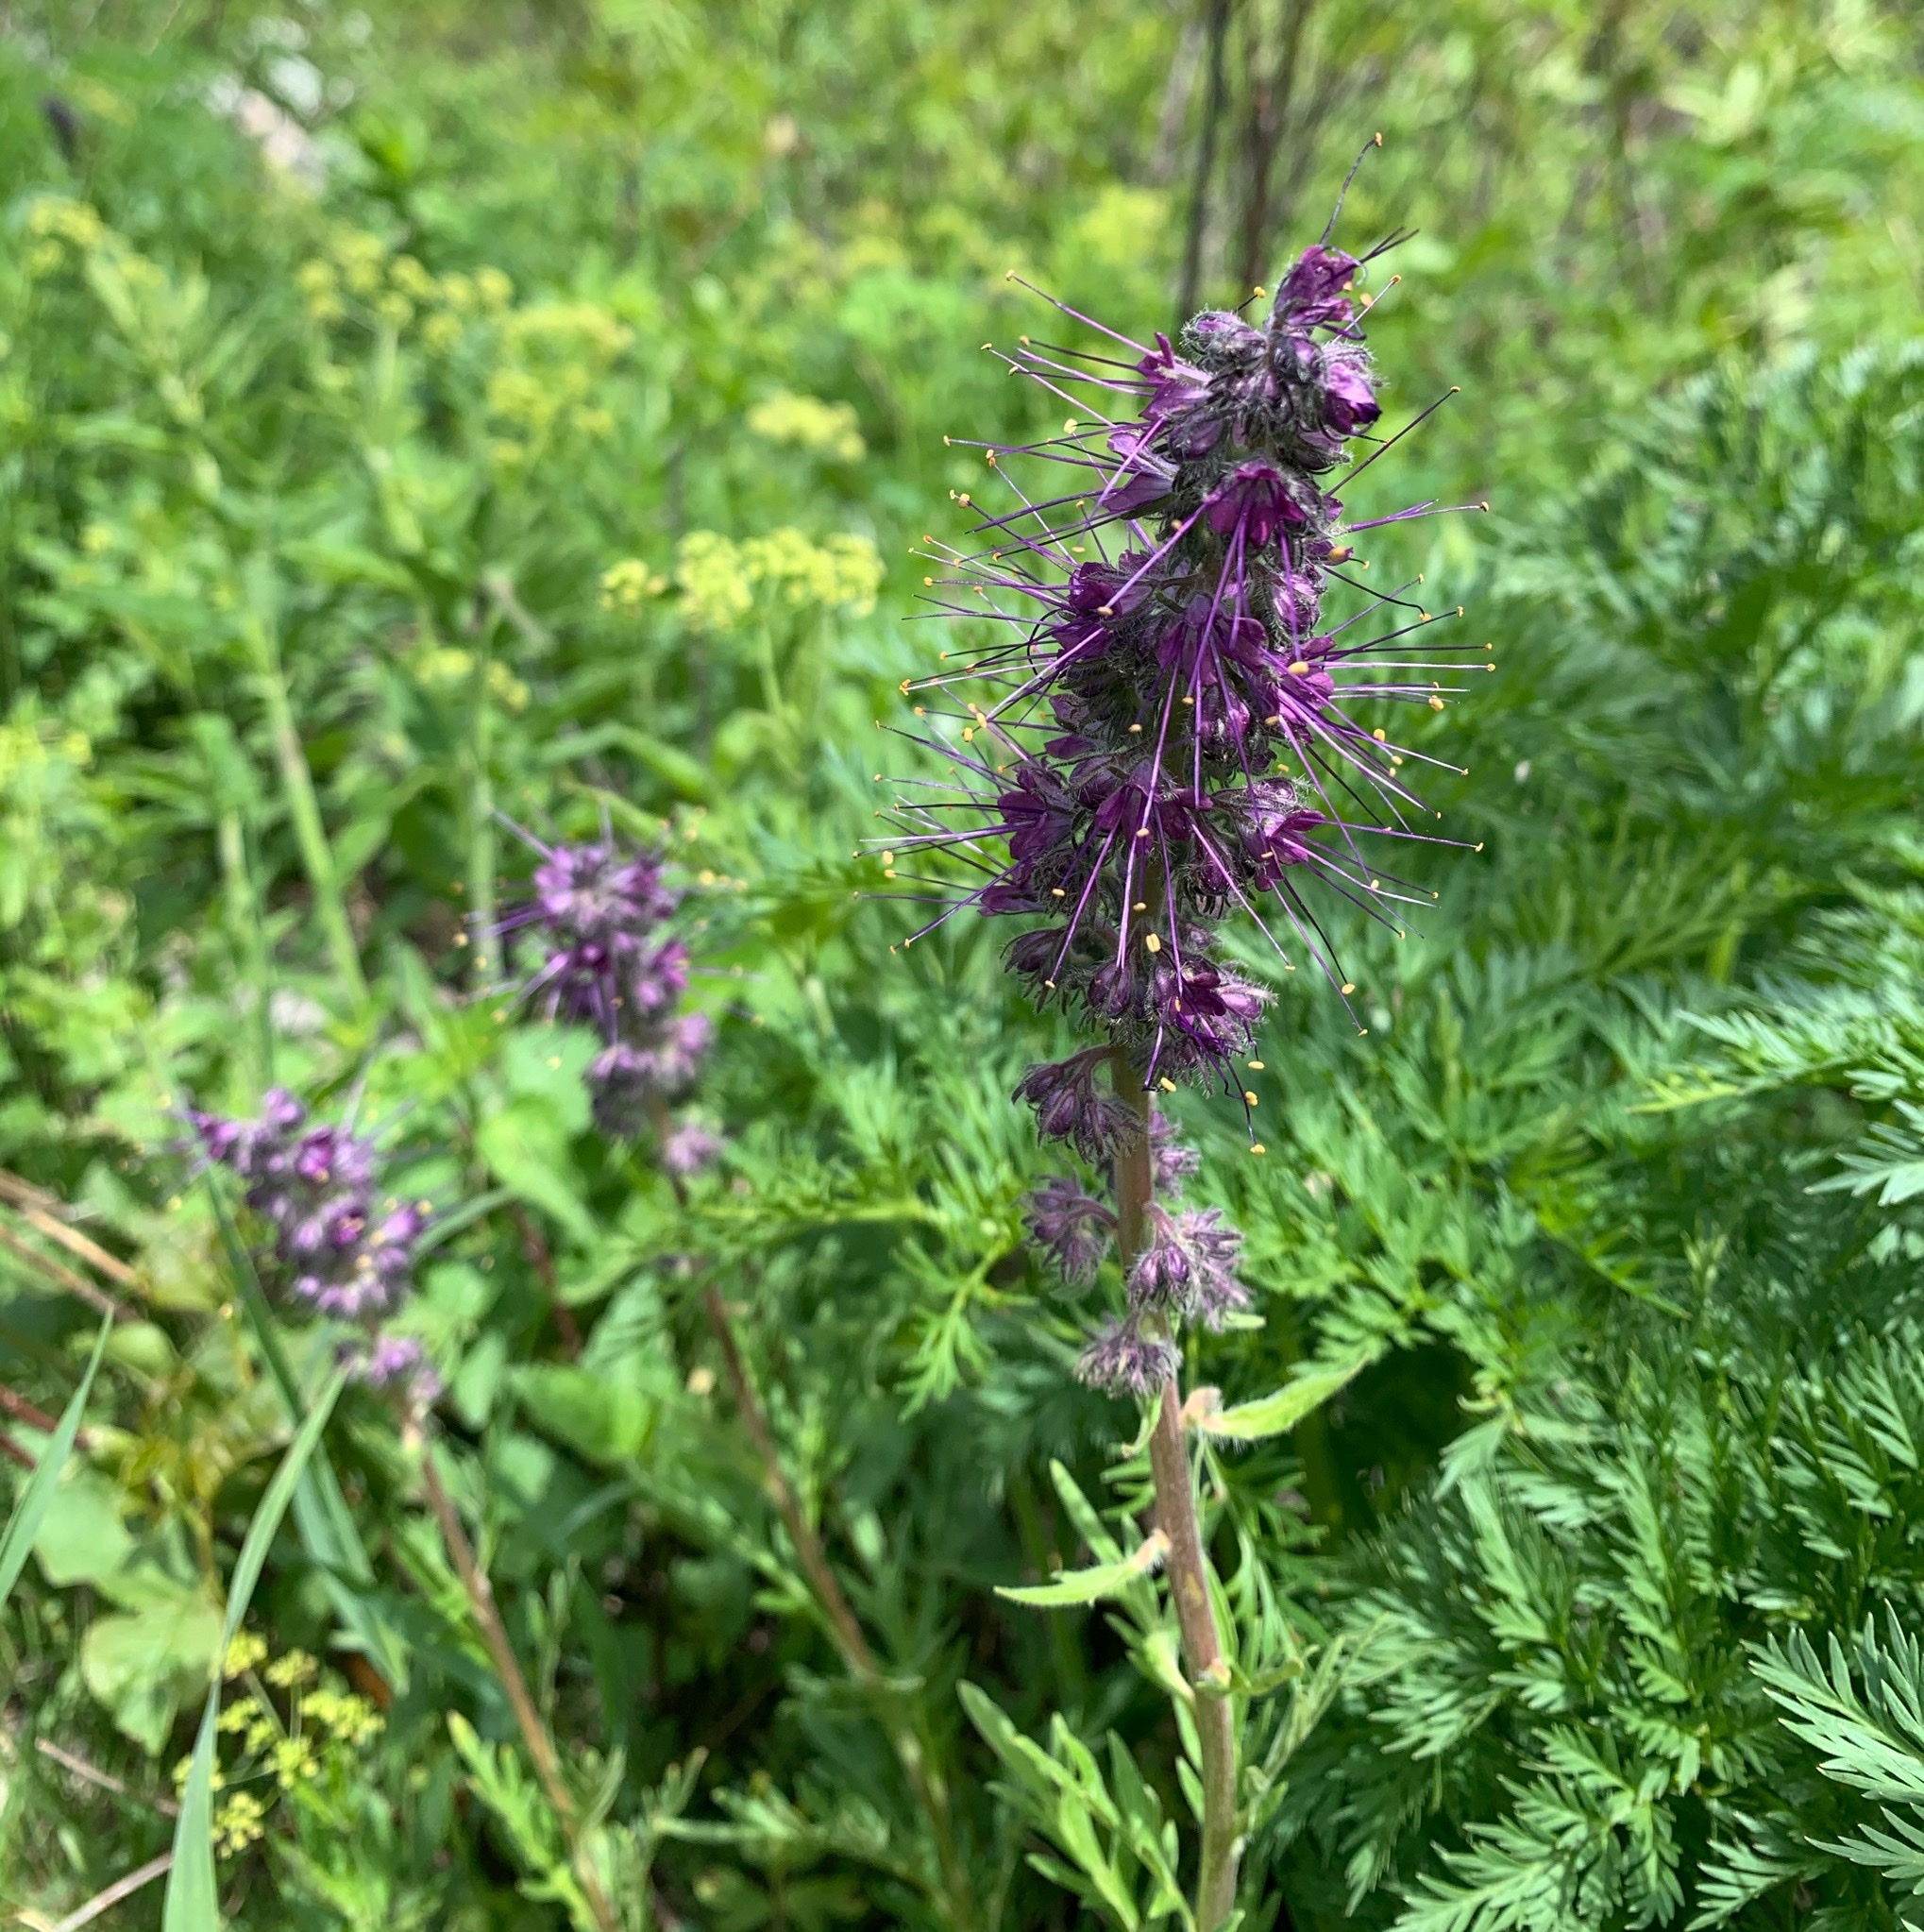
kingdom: Plantae
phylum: Tracheophyta
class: Magnoliopsida
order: Boraginales
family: Hydrophyllaceae
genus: Phacelia
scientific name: Phacelia sericea
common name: Silky phacelia
